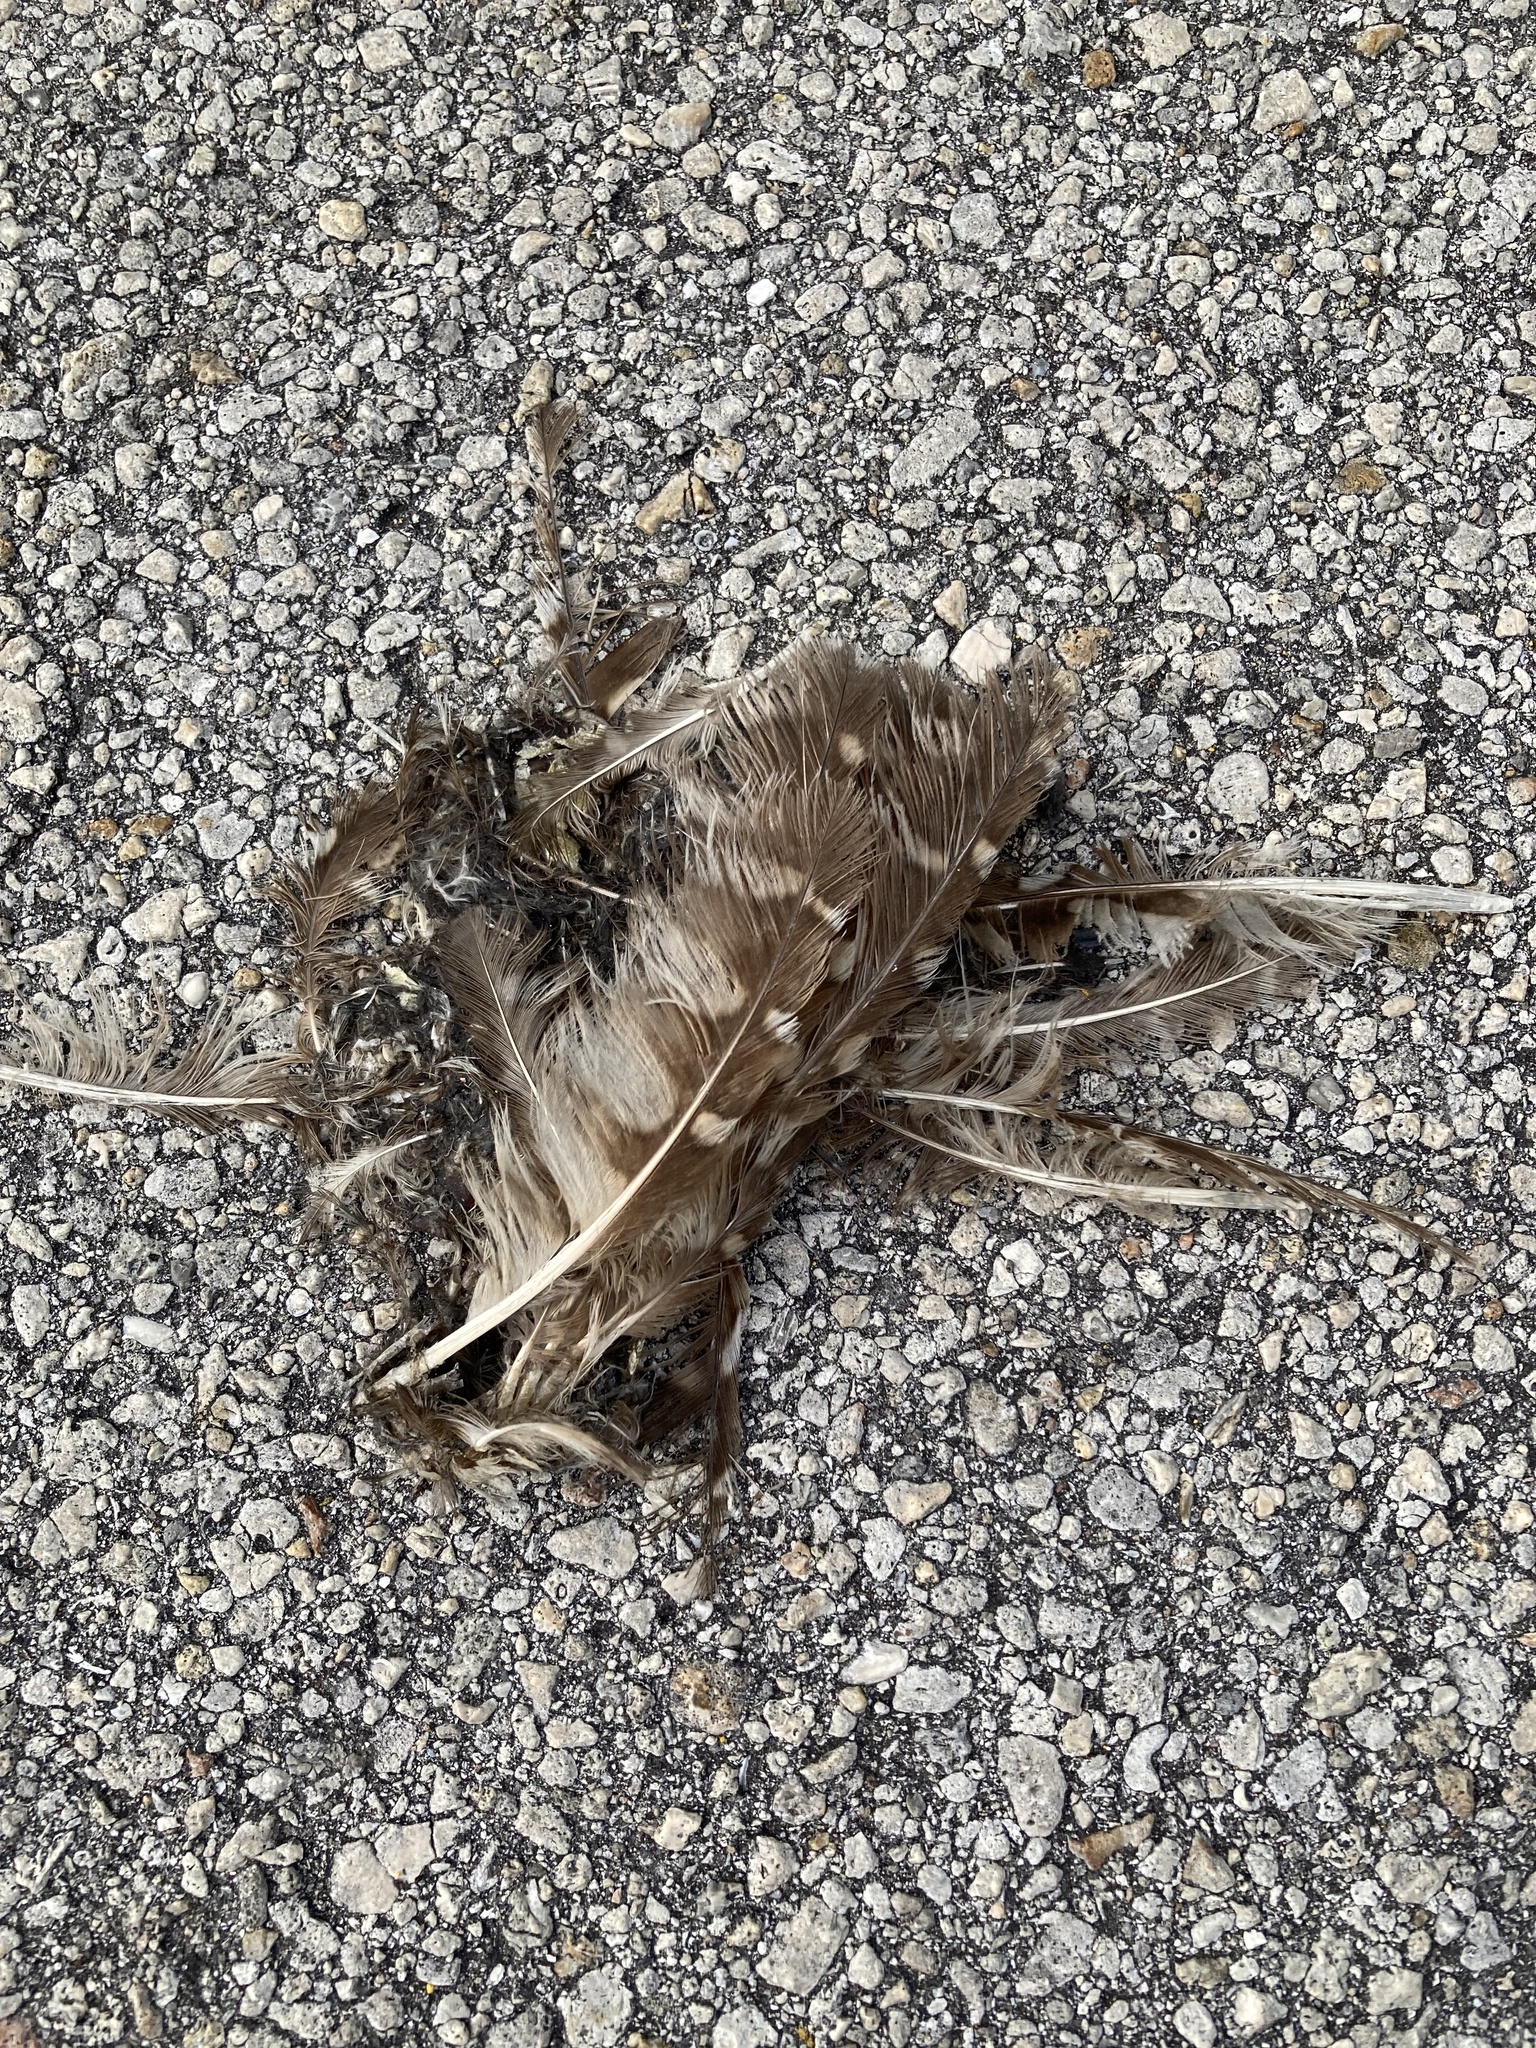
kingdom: Animalia
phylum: Chordata
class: Aves
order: Strigiformes
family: Strigidae
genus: Athene
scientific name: Athene cunicularia
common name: Burrowing owl
